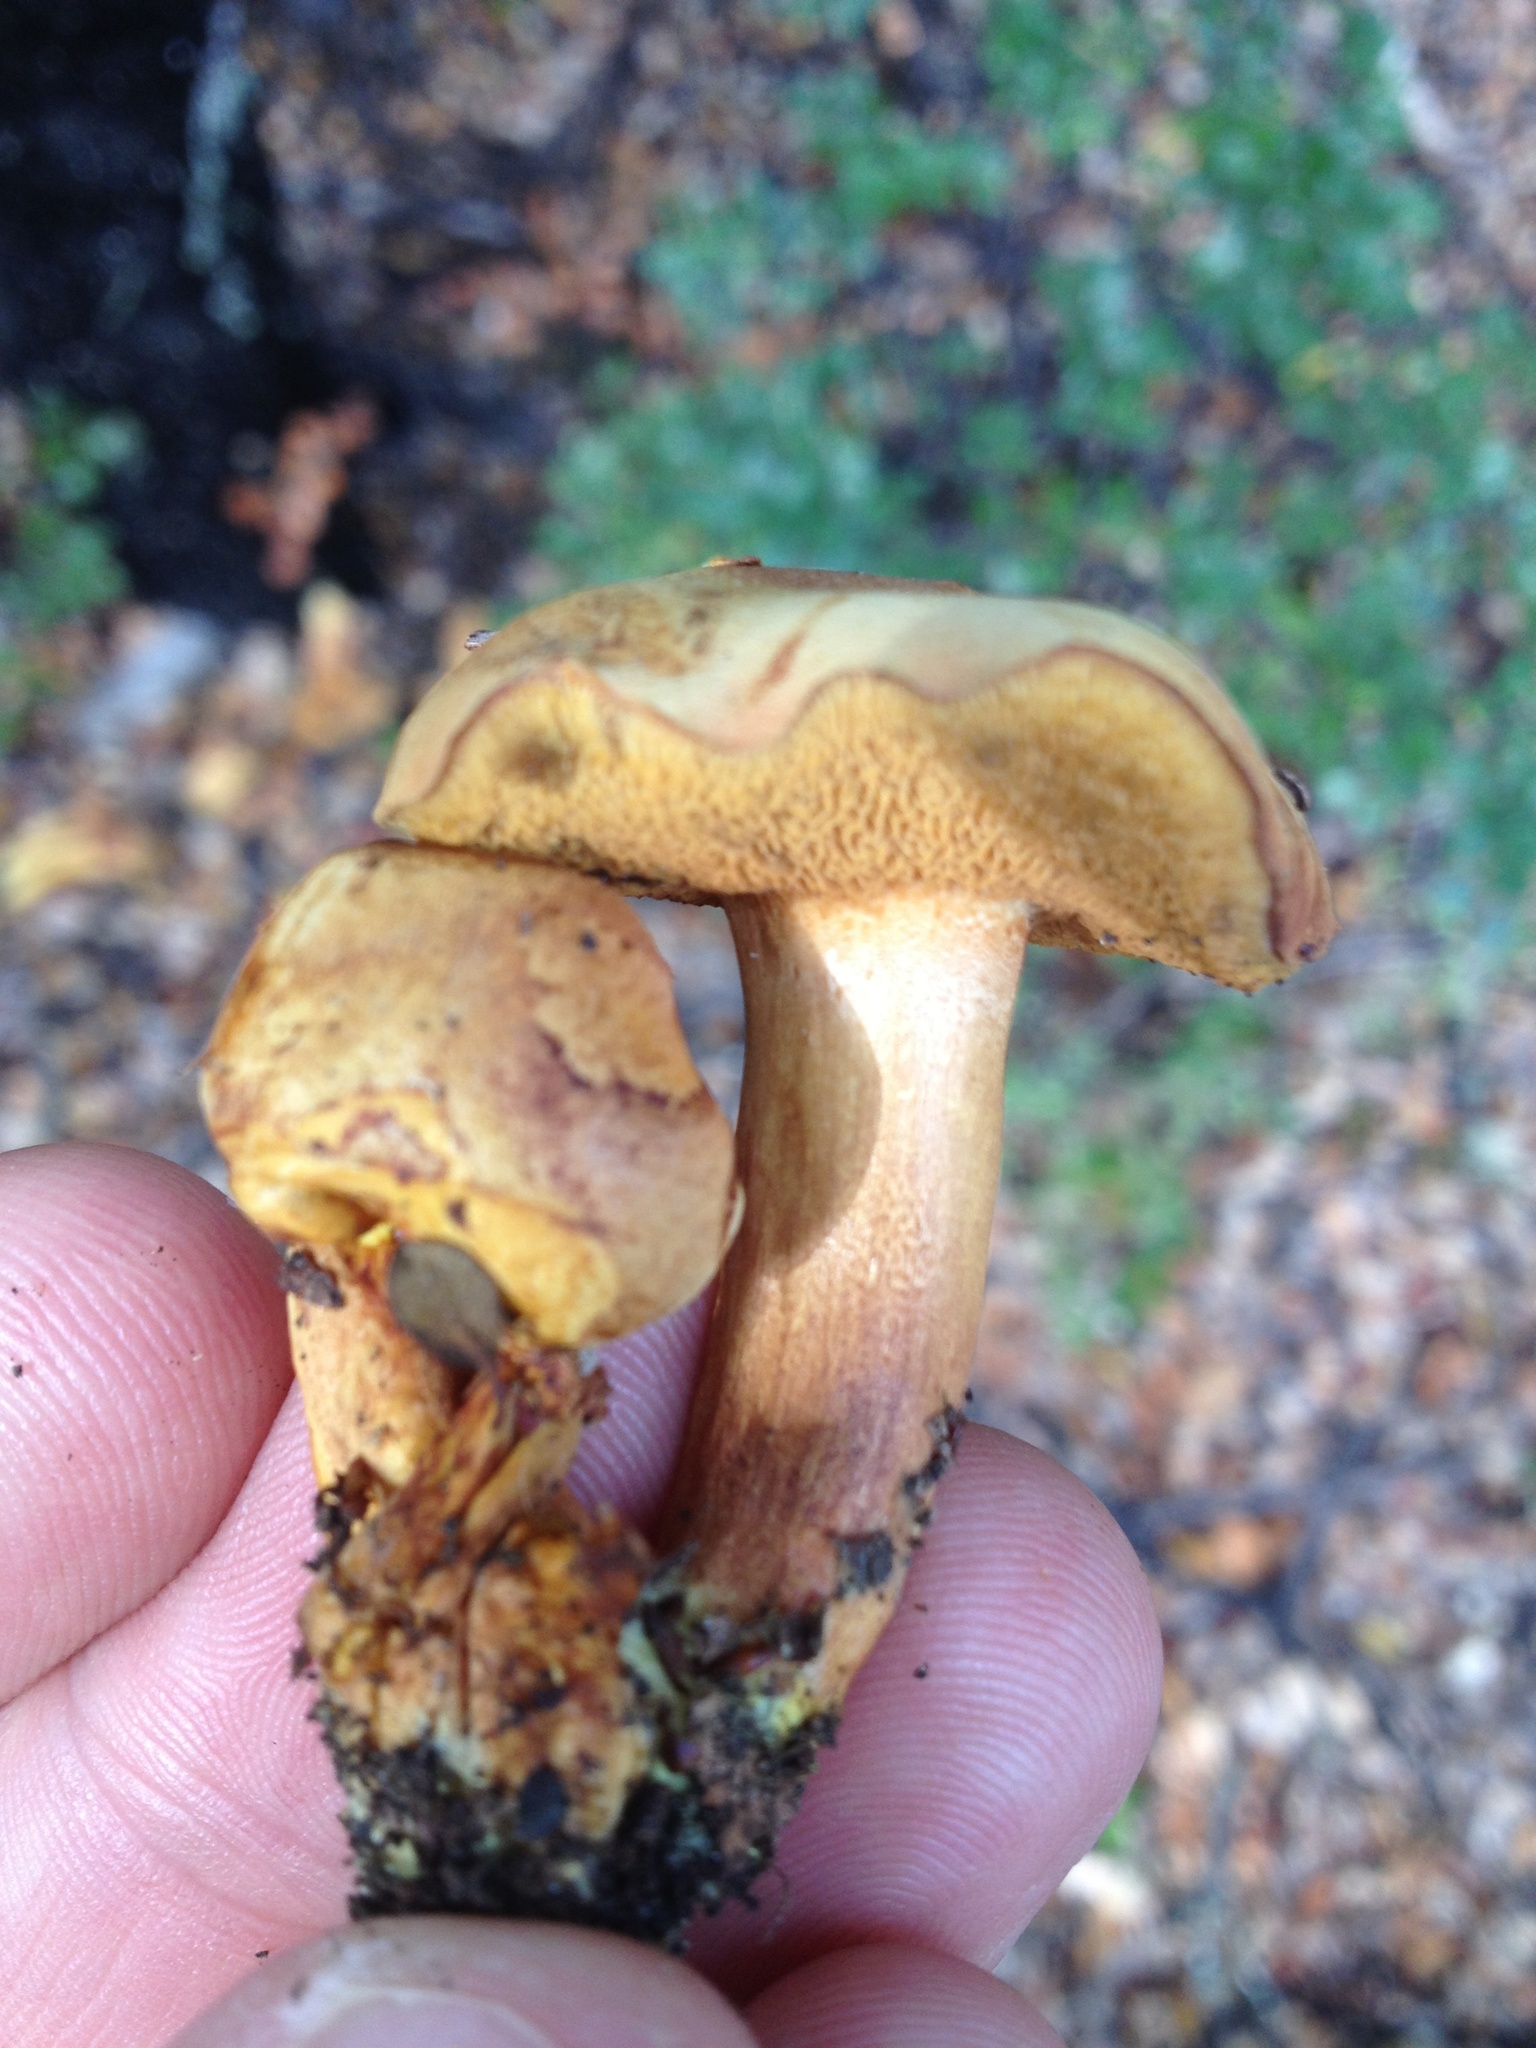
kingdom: Fungi
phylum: Basidiomycota
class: Agaricomycetes
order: Boletales
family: Boletaceae
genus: Chalciporus
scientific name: Chalciporus piperatus
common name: Peppery bolete
